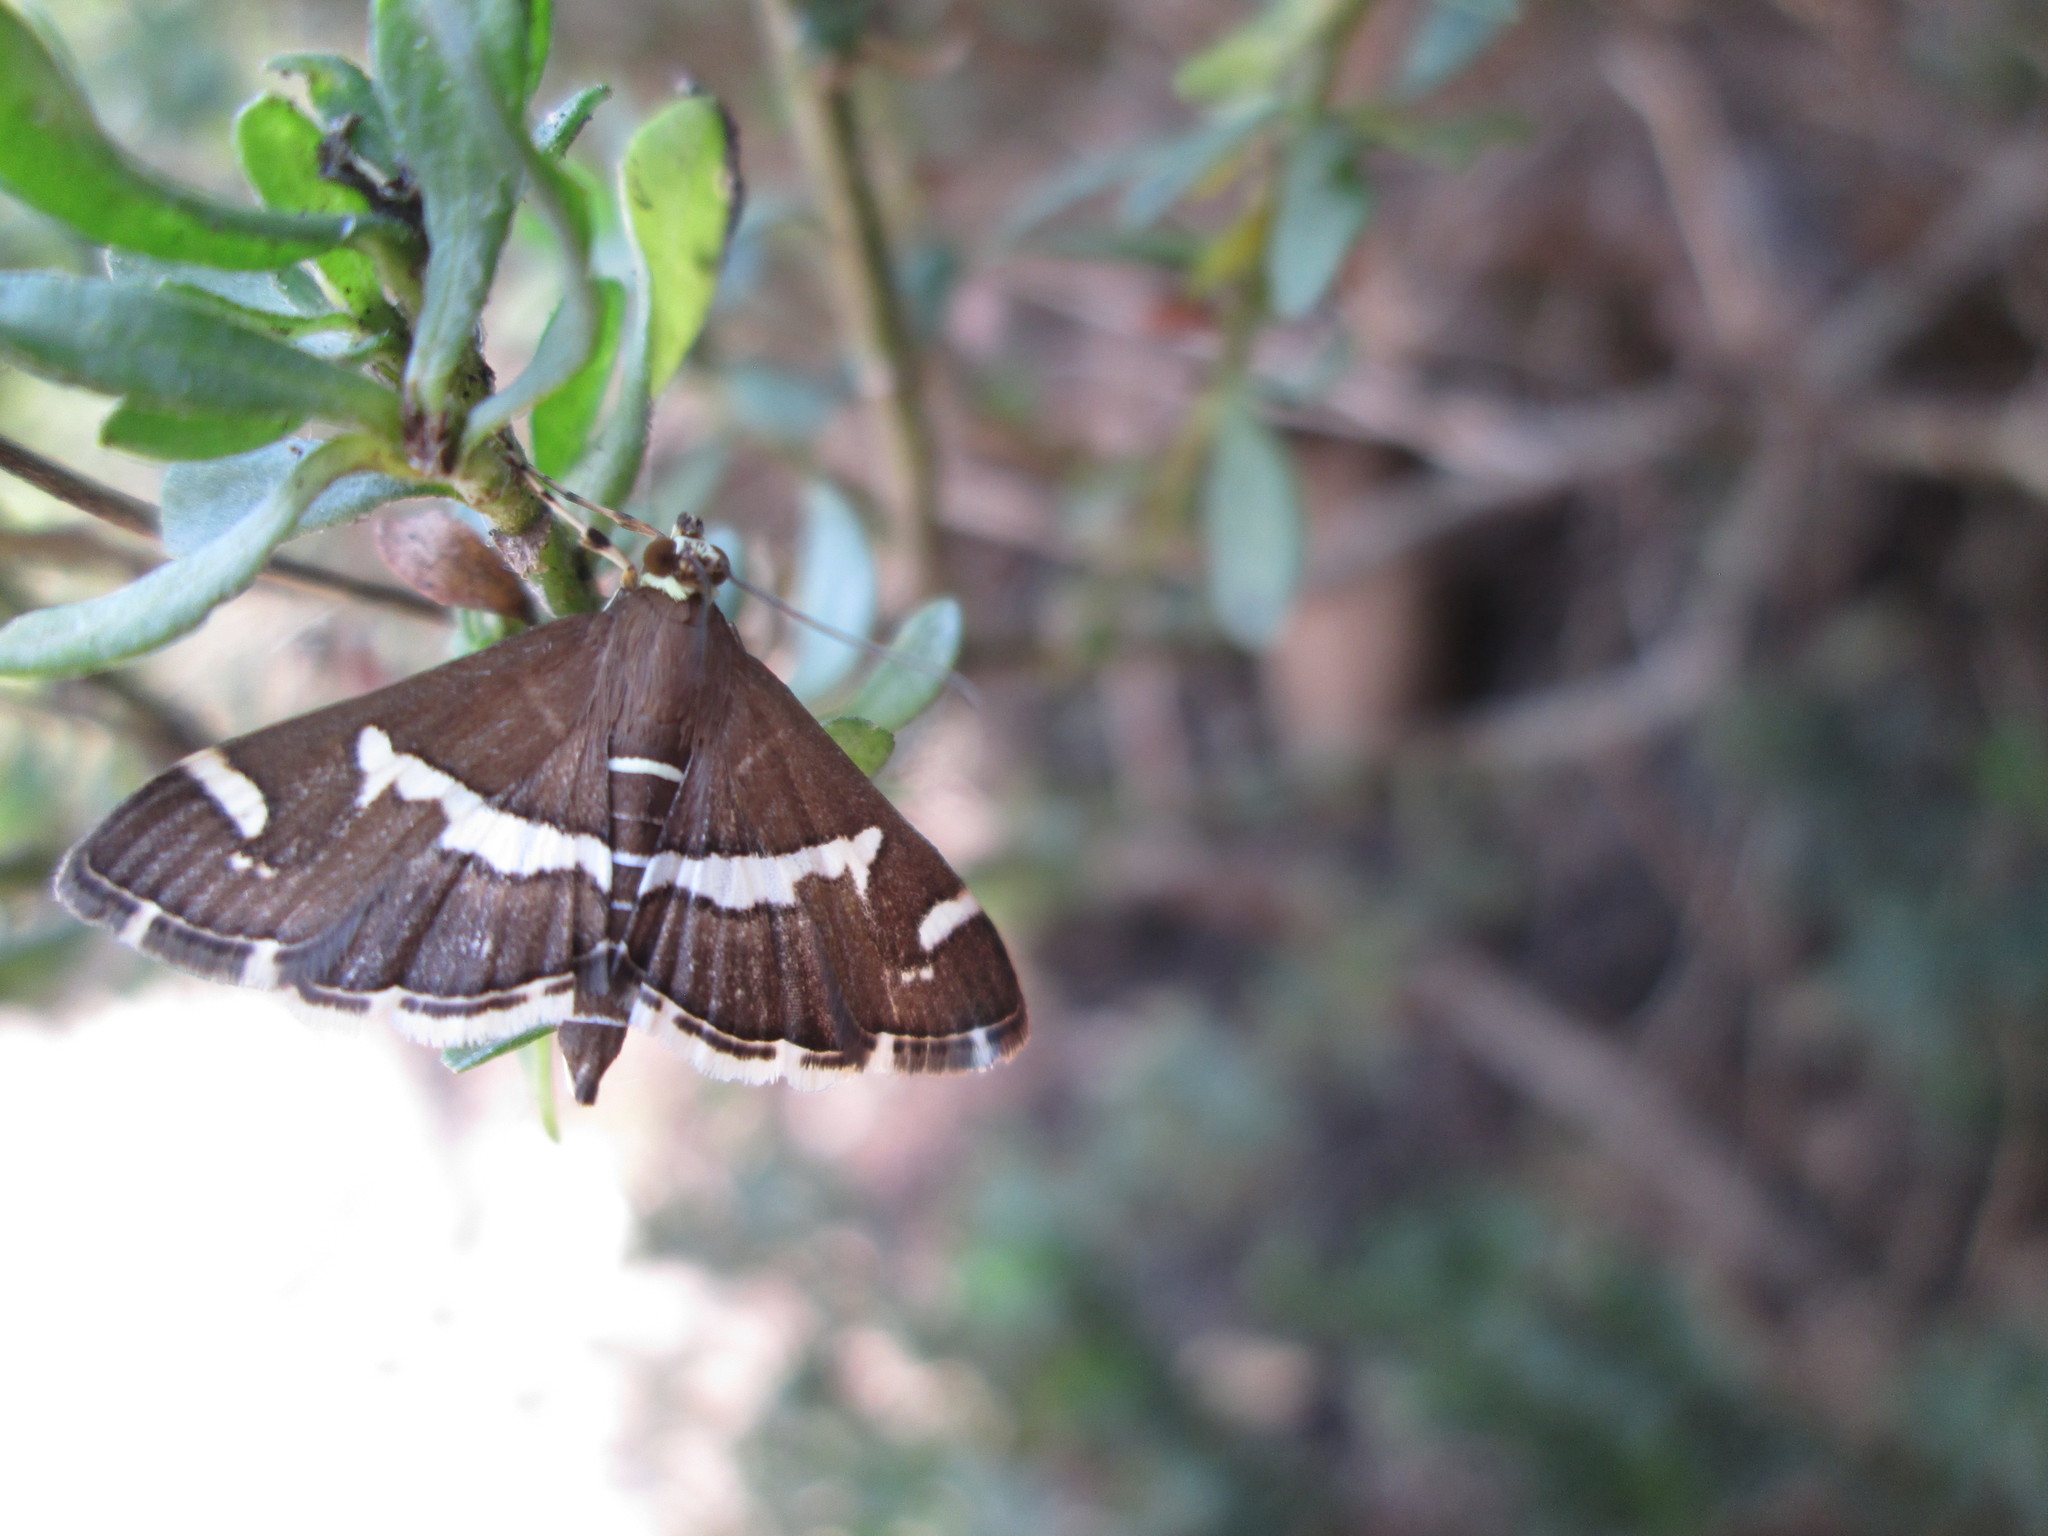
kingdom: Animalia
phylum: Arthropoda
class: Insecta
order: Lepidoptera
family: Crambidae
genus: Spoladea
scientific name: Spoladea recurvalis
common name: Beet webworm moth
